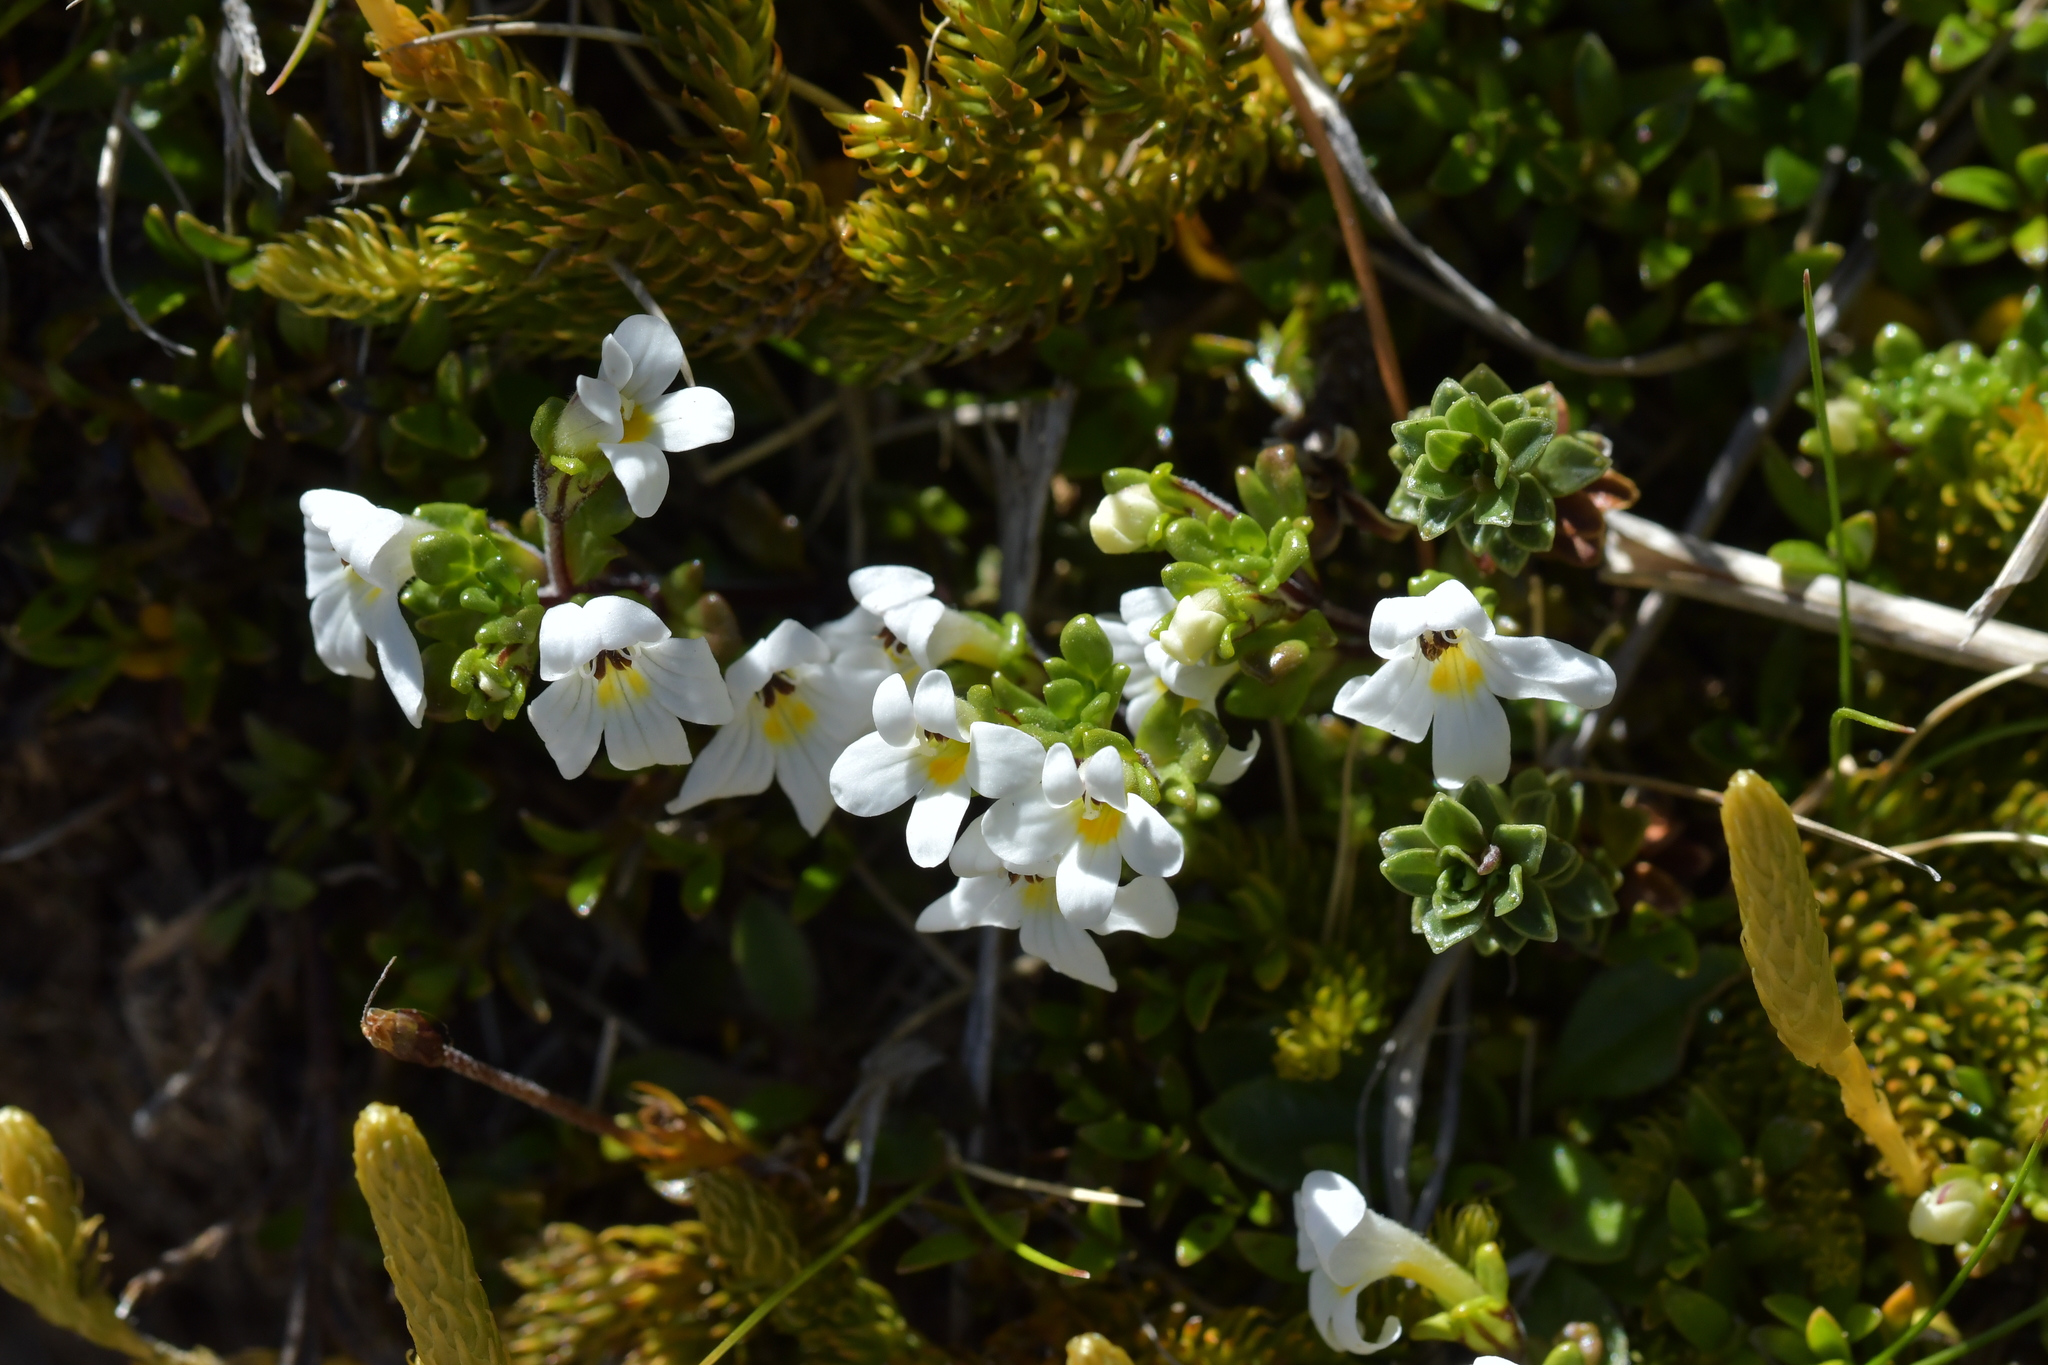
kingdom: Plantae
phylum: Tracheophyta
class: Magnoliopsida
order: Lamiales
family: Orobanchaceae
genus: Euphrasia
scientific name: Euphrasia revoluta
